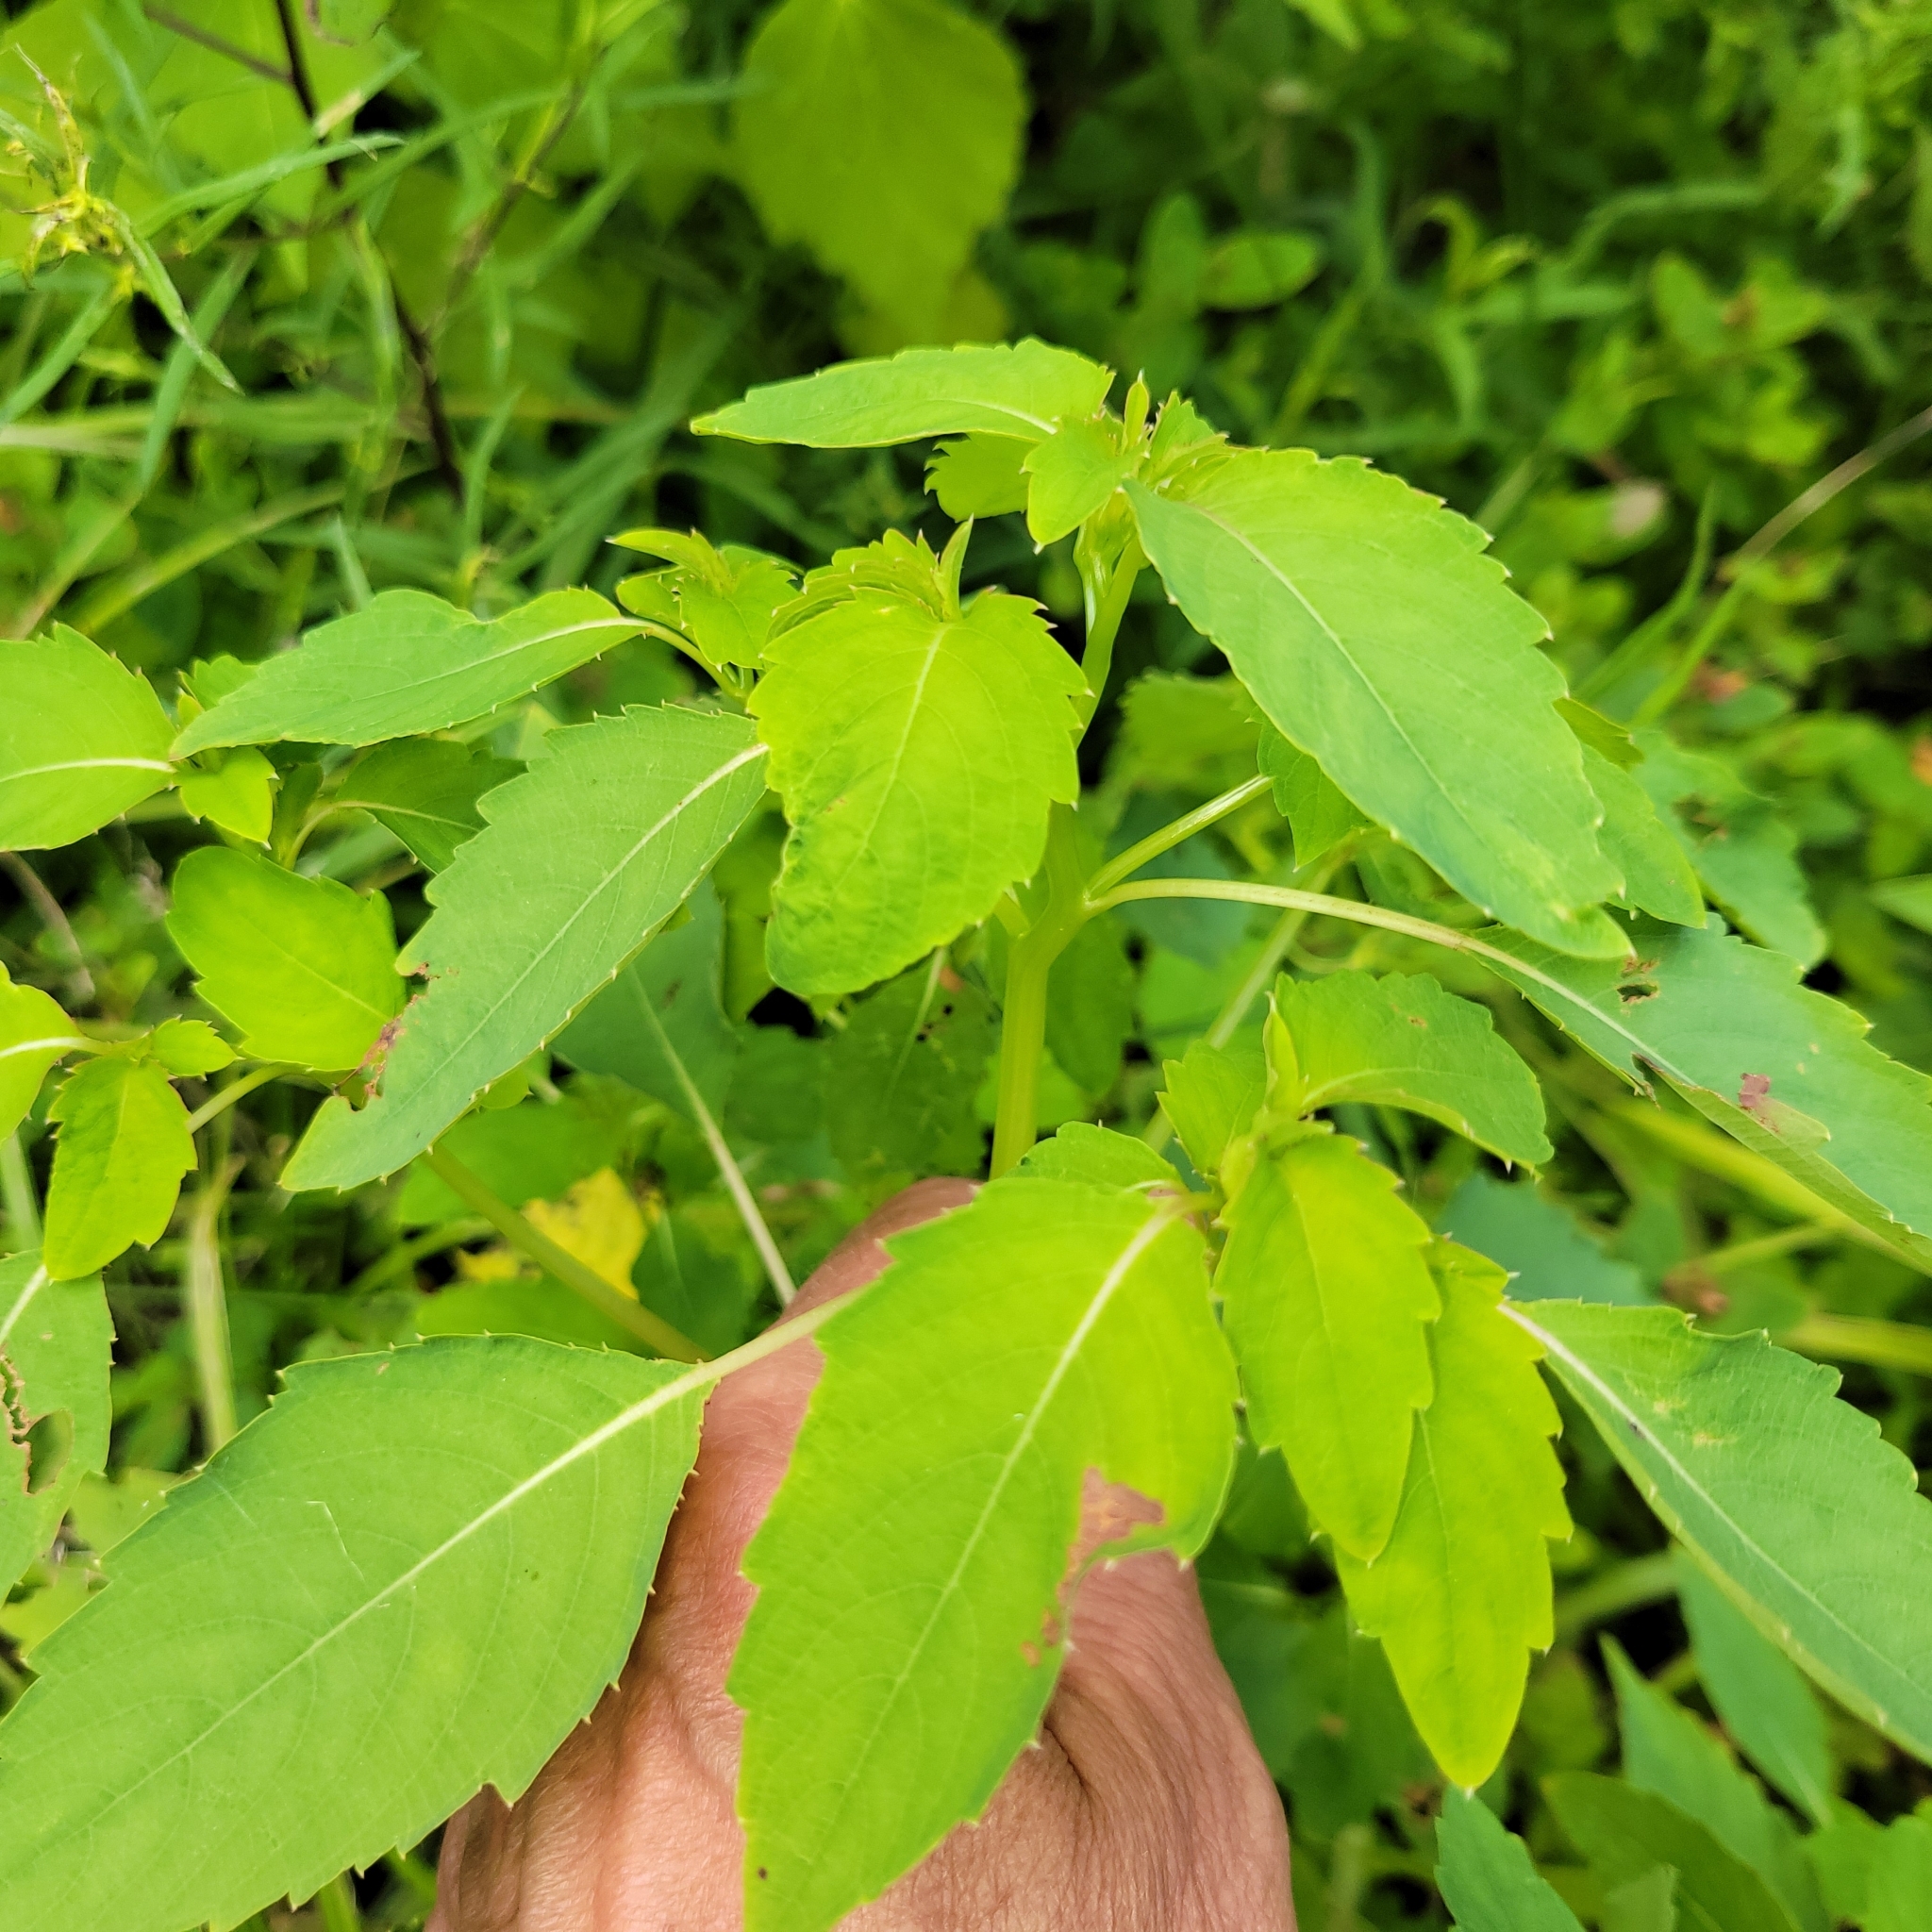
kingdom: Plantae
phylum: Tracheophyta
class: Magnoliopsida
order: Ericales
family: Balsaminaceae
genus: Impatiens
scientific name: Impatiens capensis
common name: Orange balsam
